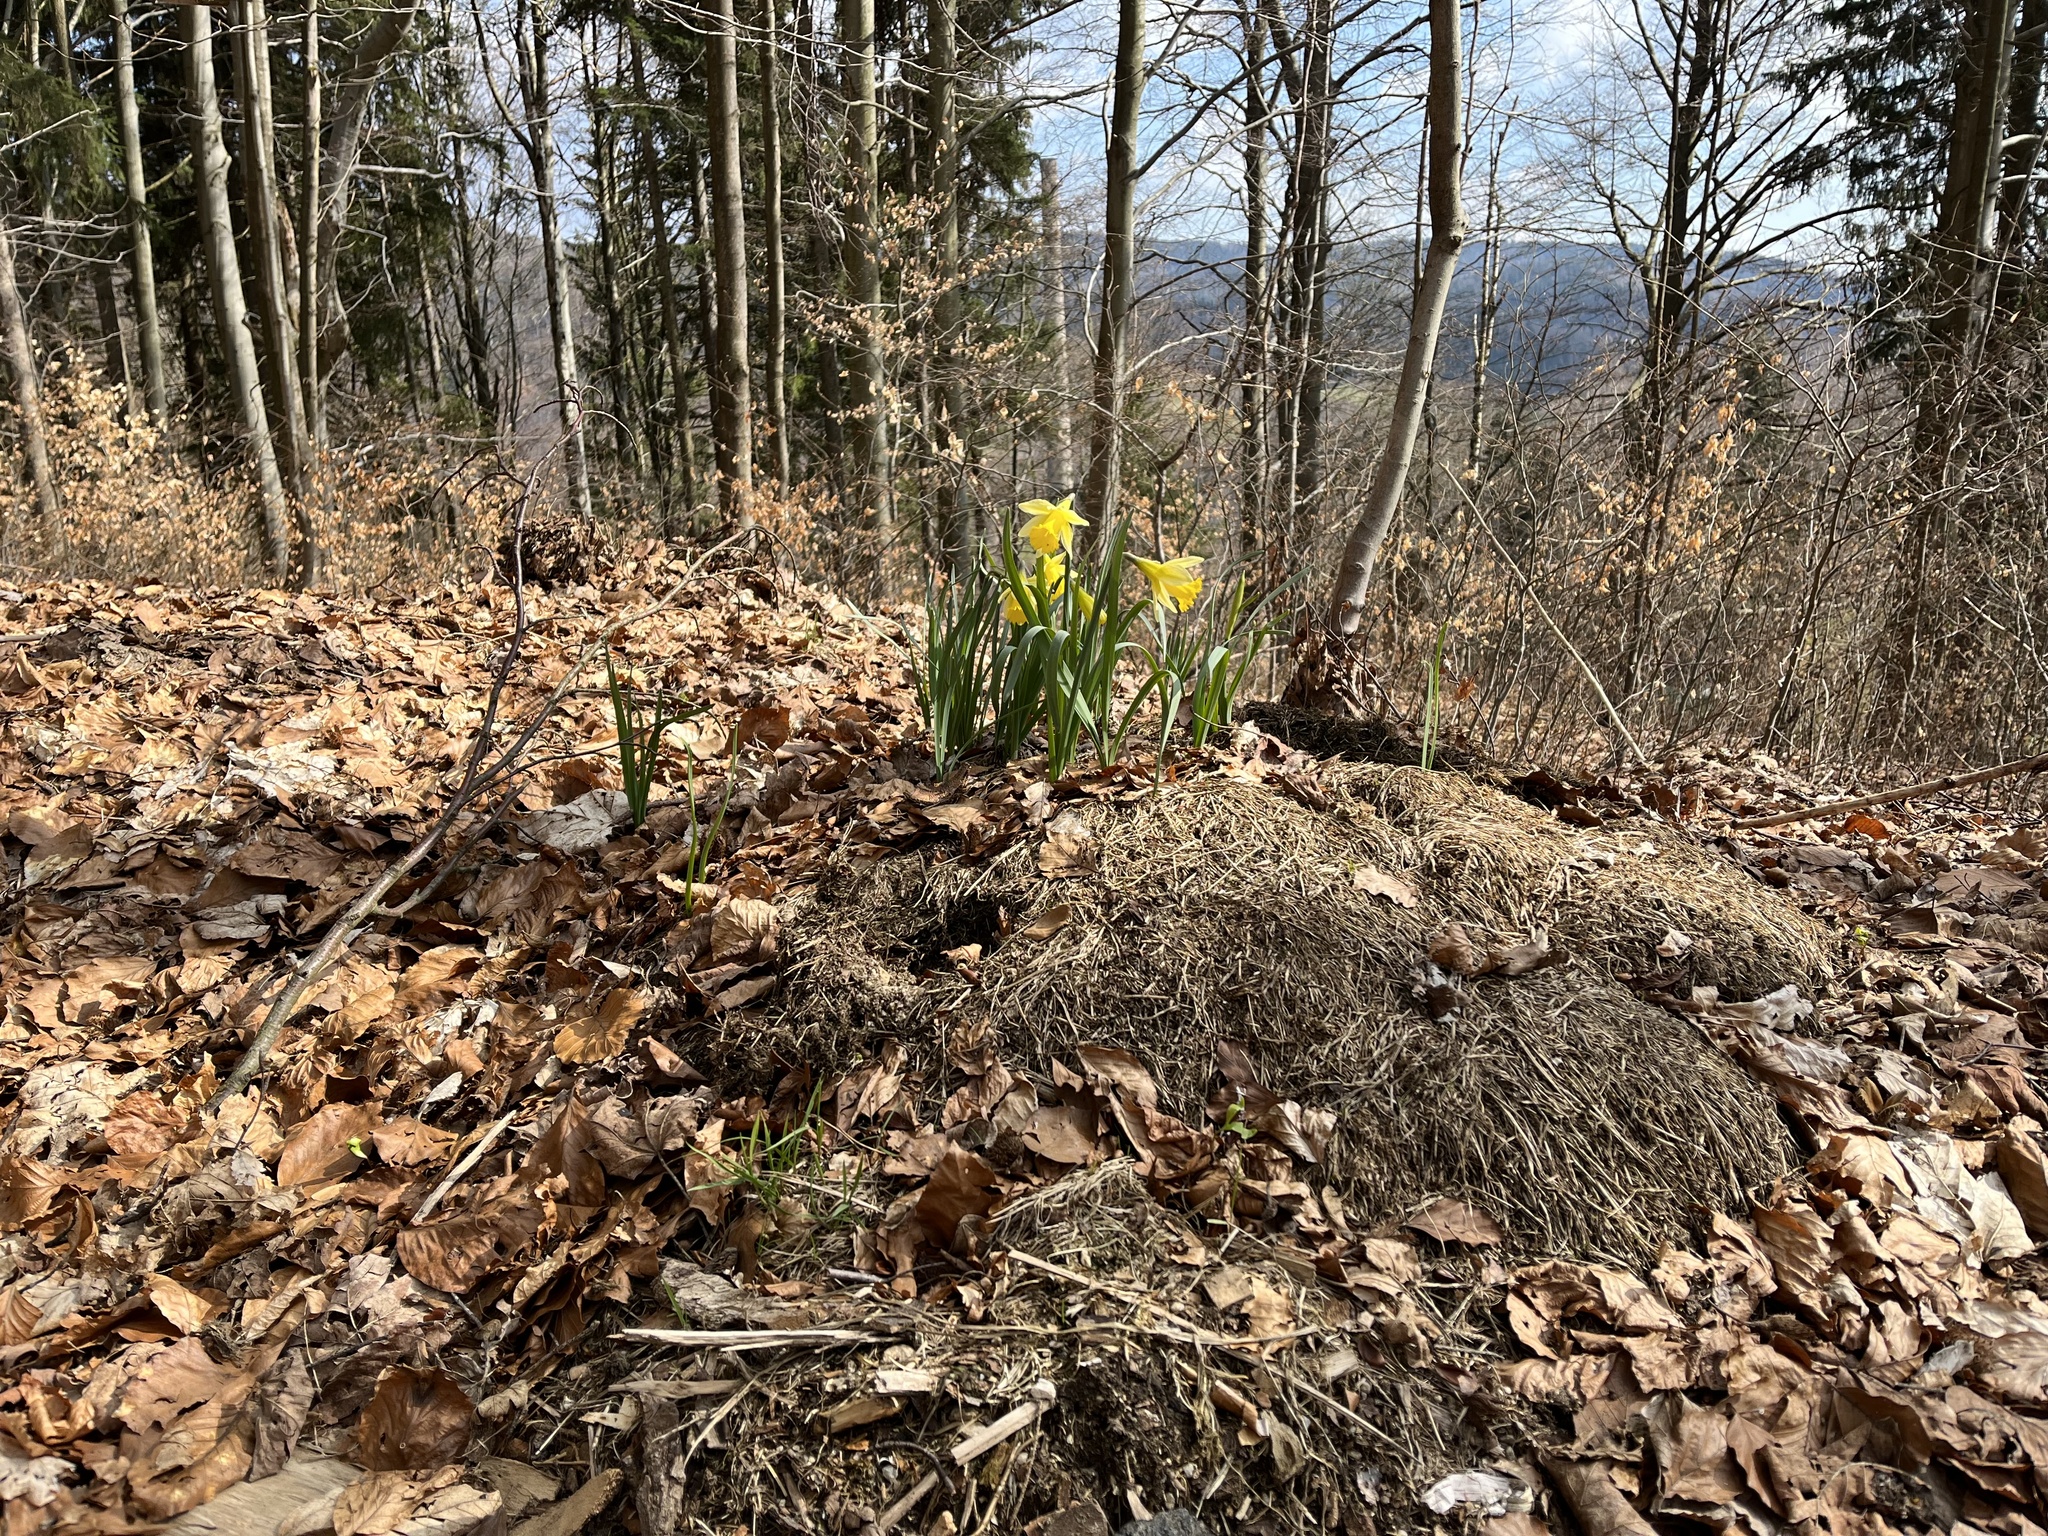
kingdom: Plantae
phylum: Tracheophyta
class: Liliopsida
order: Asparagales
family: Amaryllidaceae
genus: Narcissus
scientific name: Narcissus pseudonarcissus
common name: Daffodil
